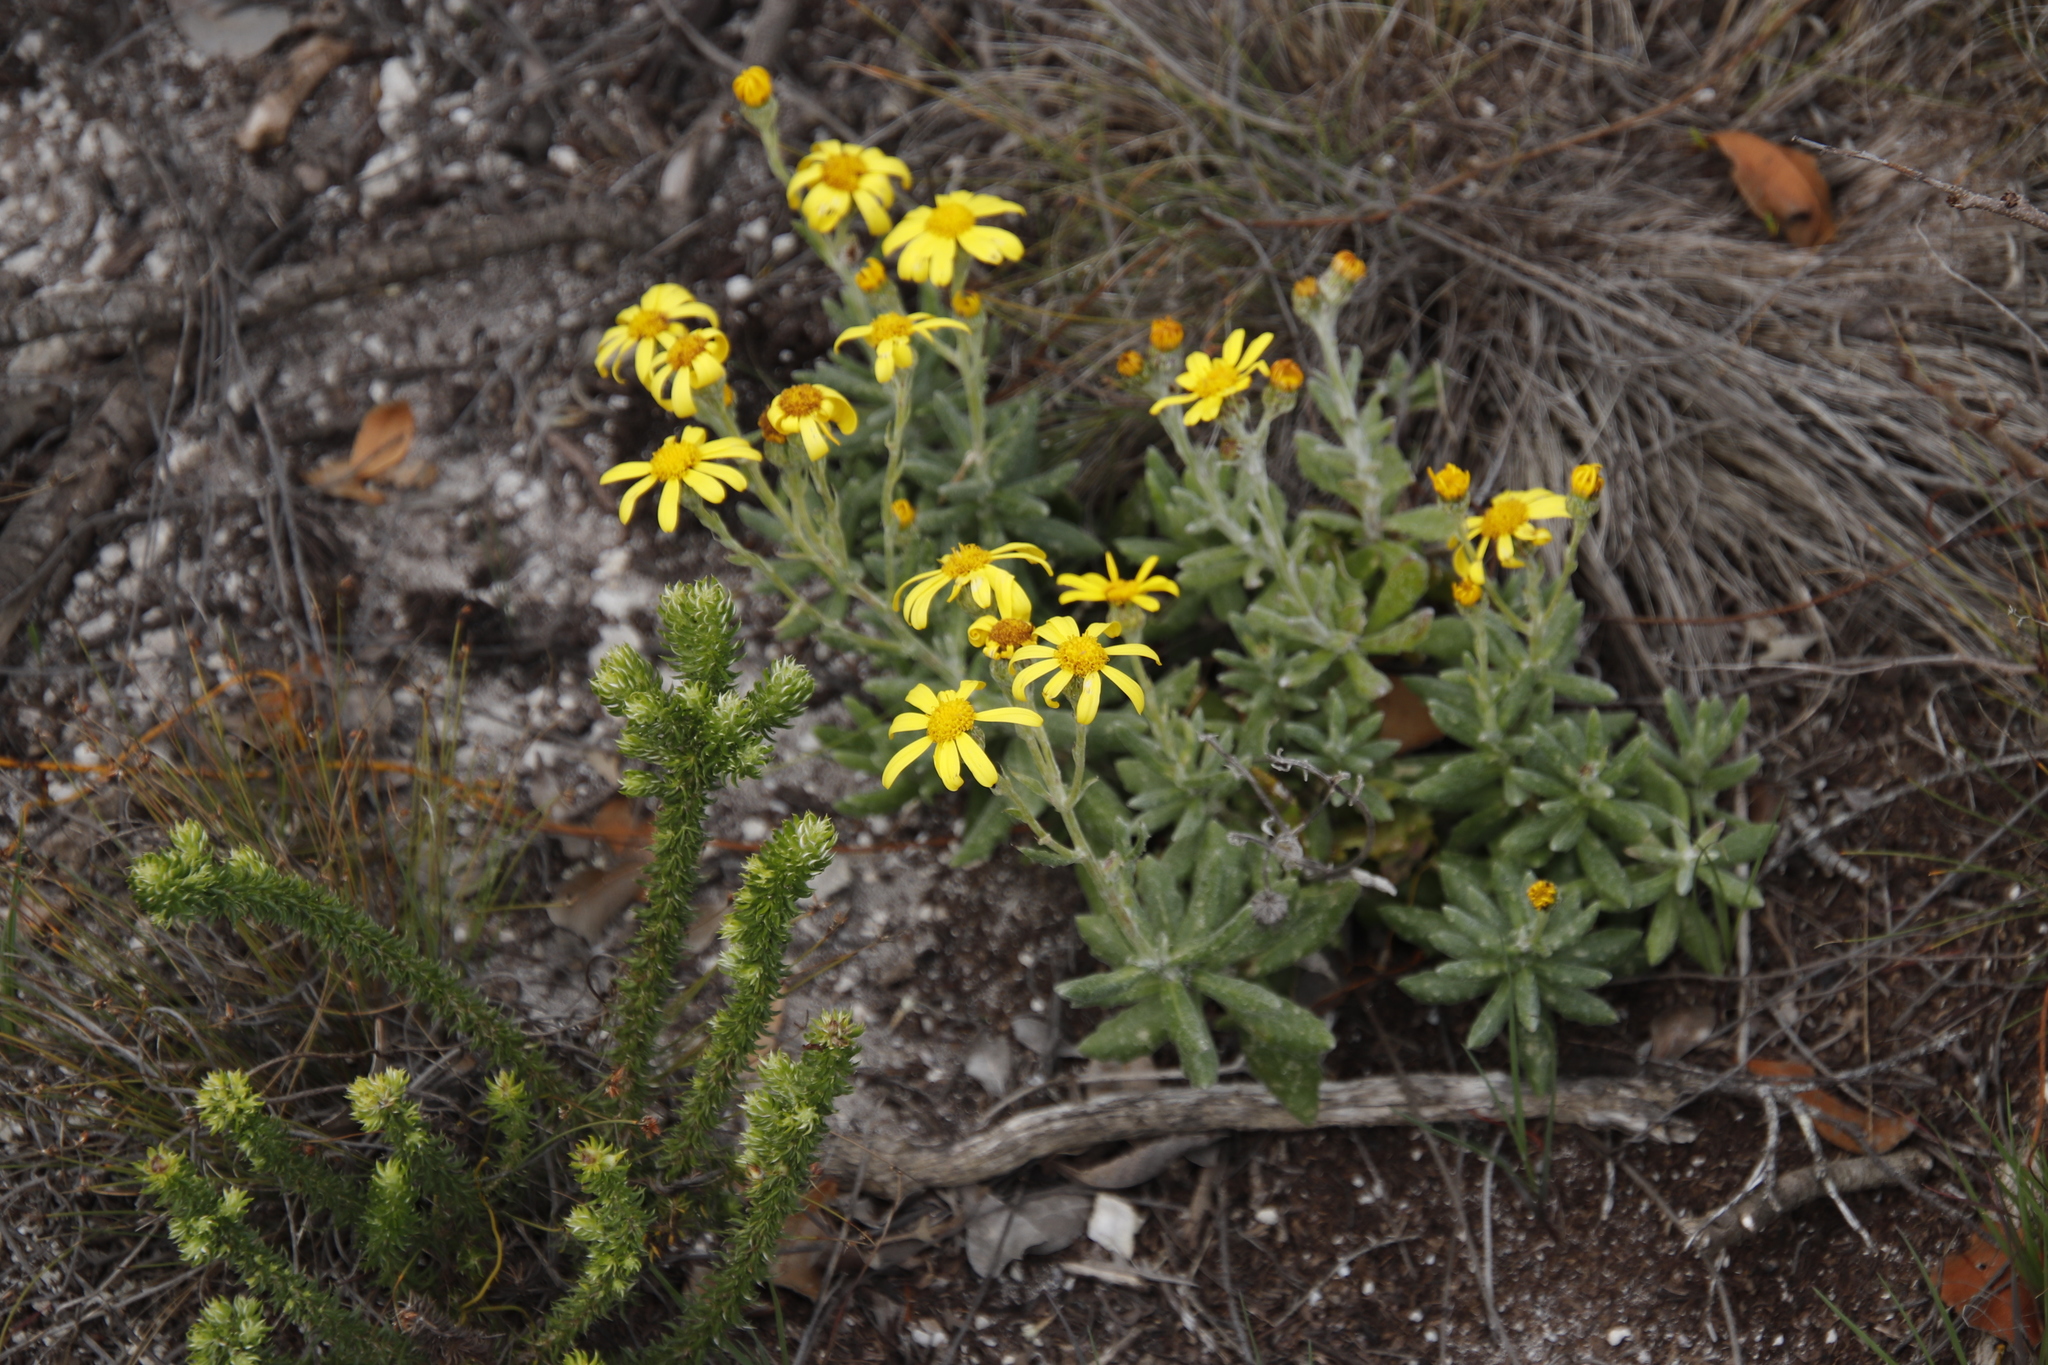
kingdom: Plantae
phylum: Tracheophyta
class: Magnoliopsida
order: Asterales
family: Asteraceae
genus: Senecio
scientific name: Senecio arniciflorus
